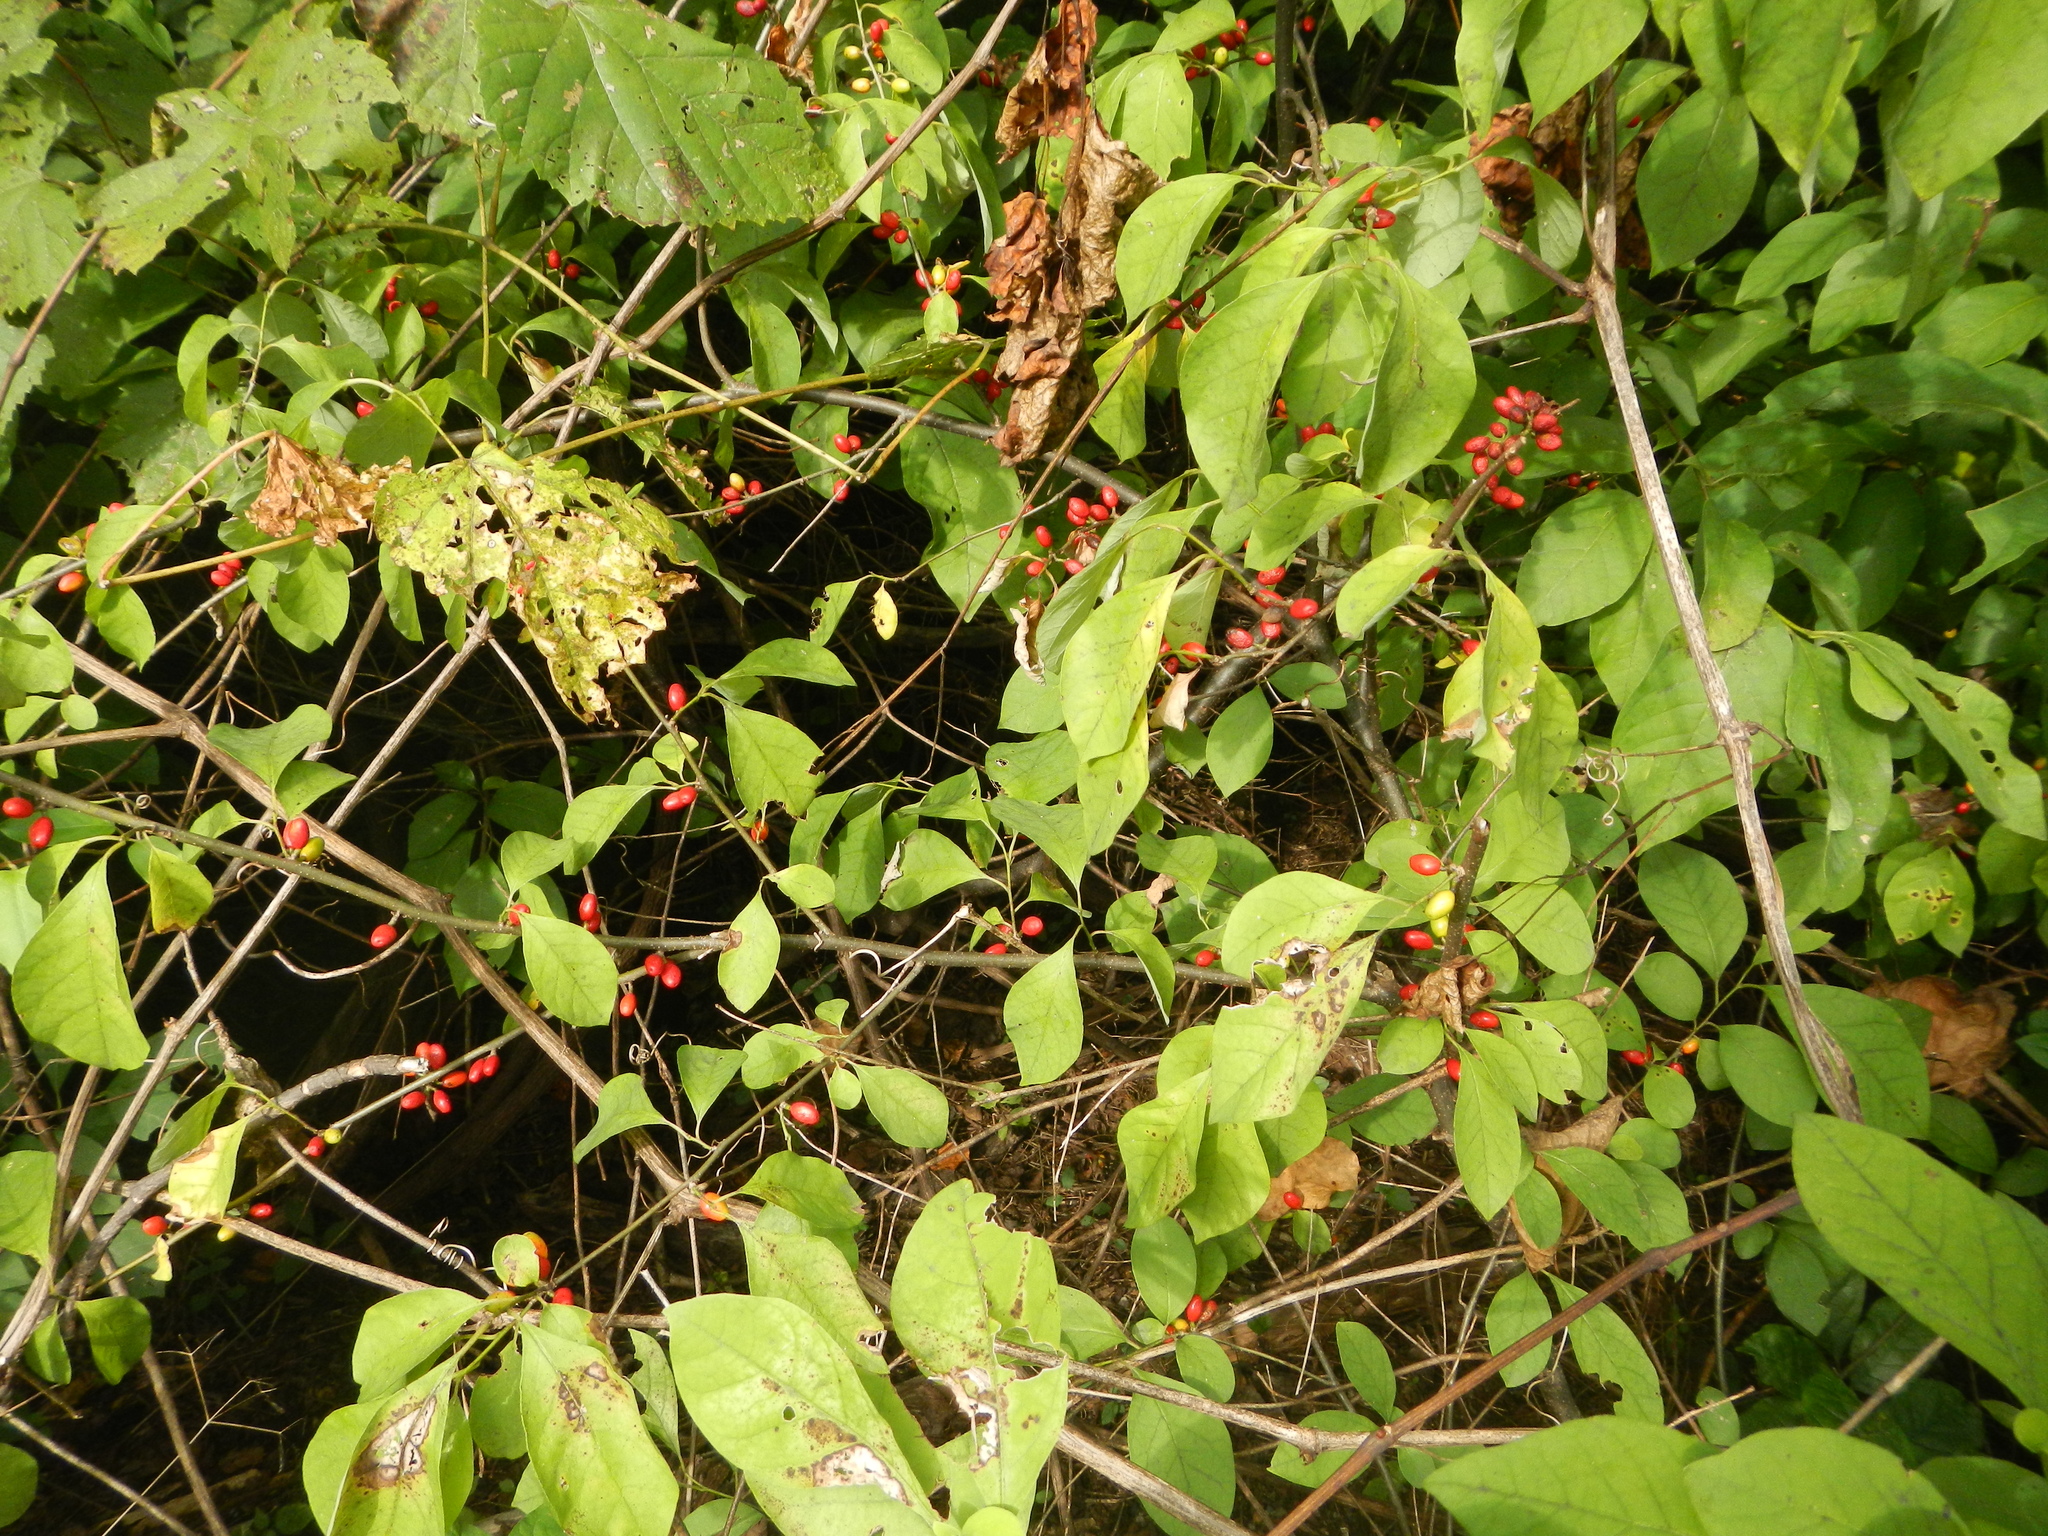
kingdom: Plantae
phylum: Tracheophyta
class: Magnoliopsida
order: Laurales
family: Lauraceae
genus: Lindera
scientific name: Lindera benzoin
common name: Spicebush
